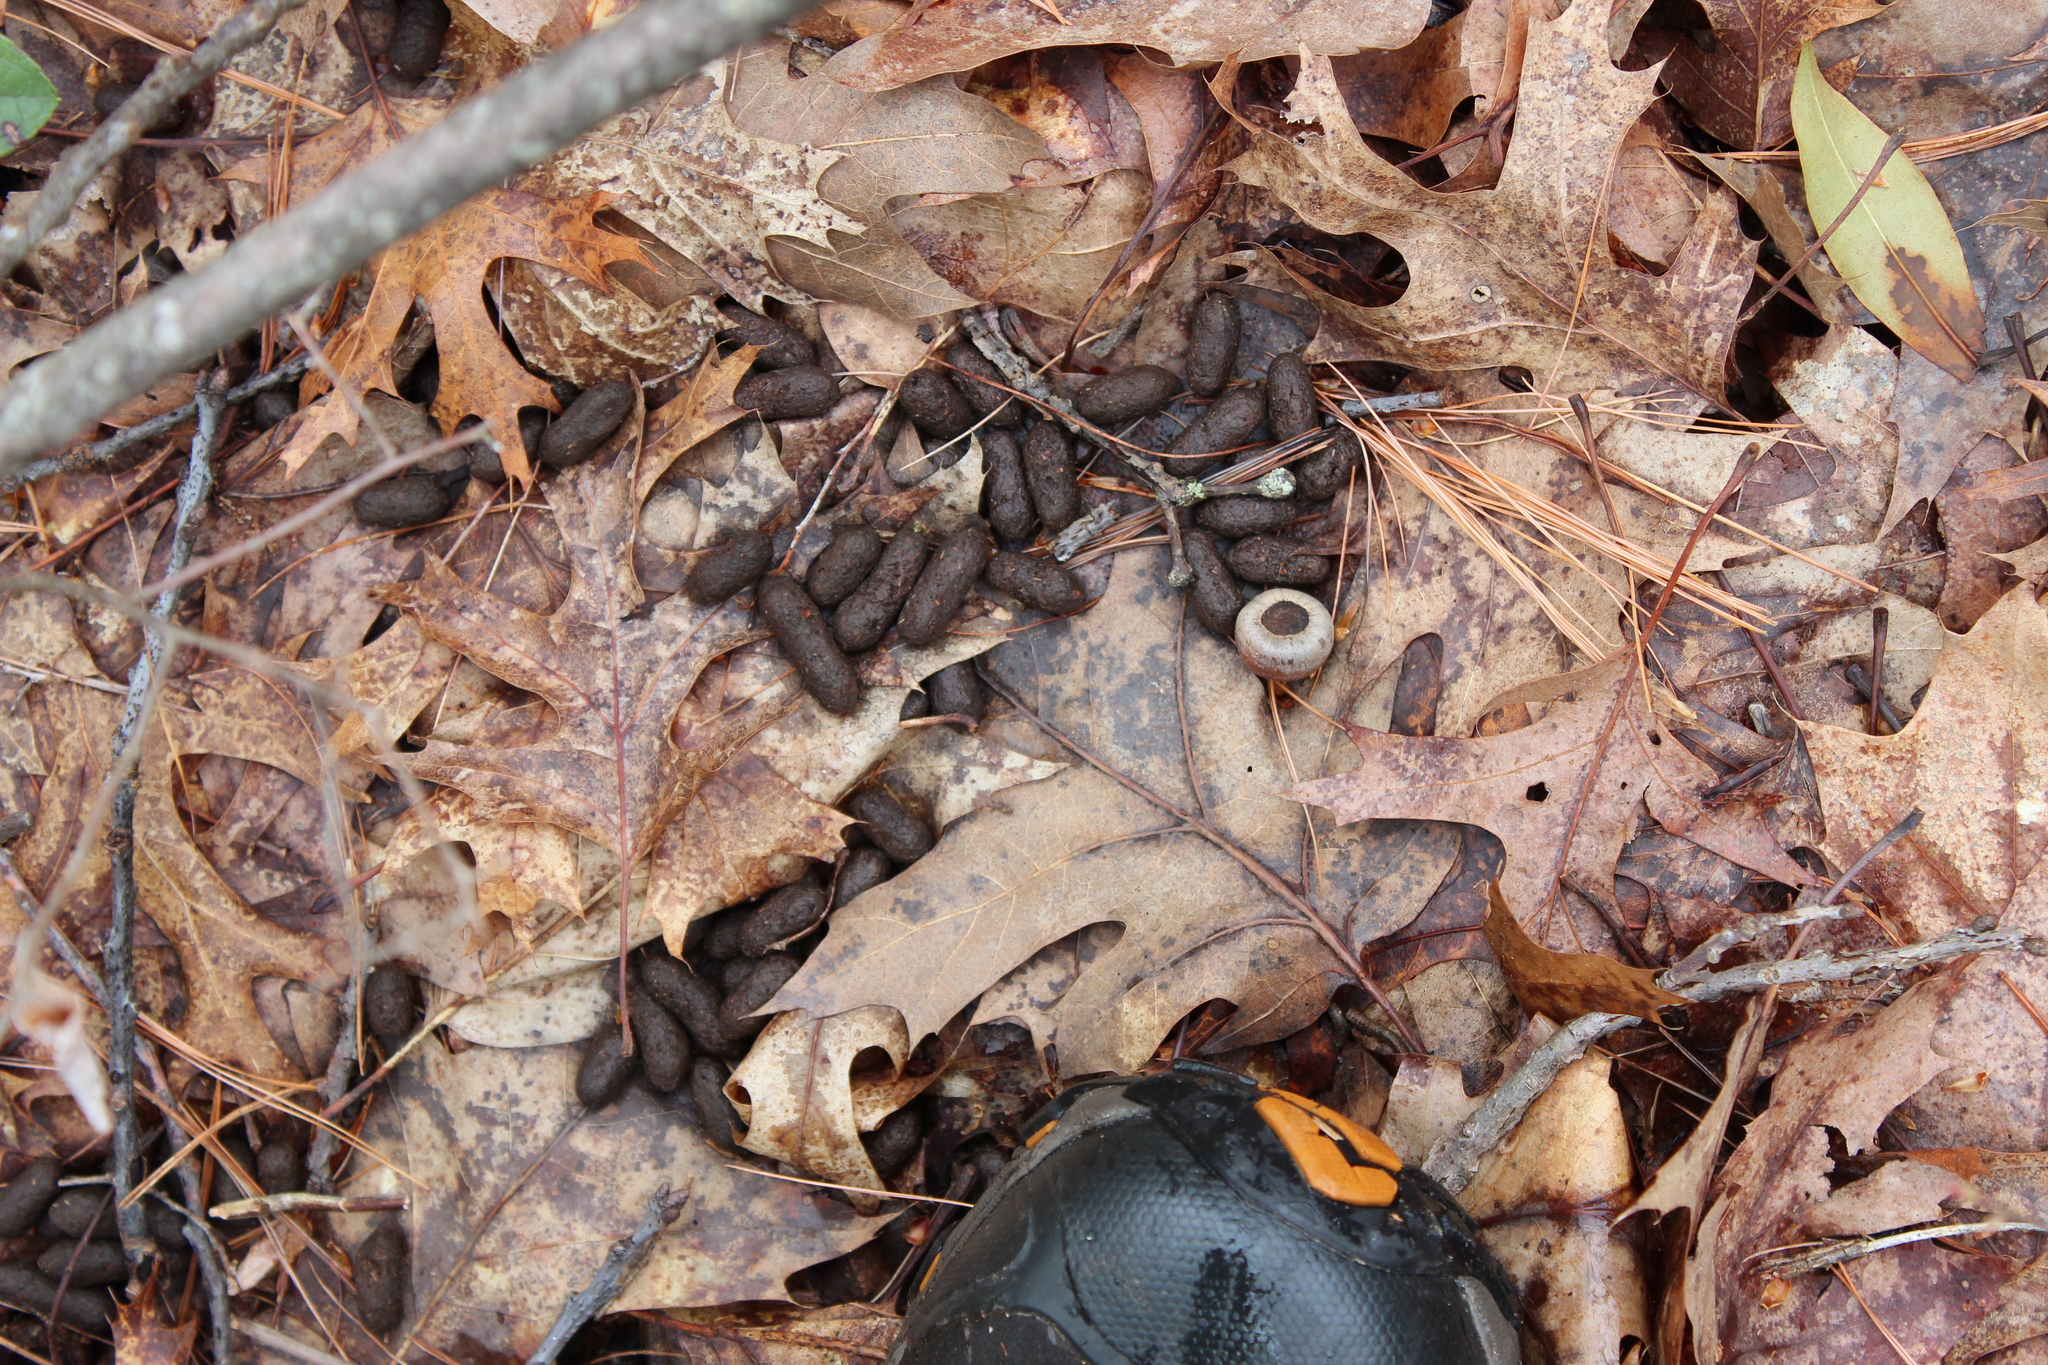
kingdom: Animalia
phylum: Chordata
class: Mammalia
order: Artiodactyla
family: Cervidae
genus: Odocoileus
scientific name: Odocoileus virginianus
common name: White-tailed deer
